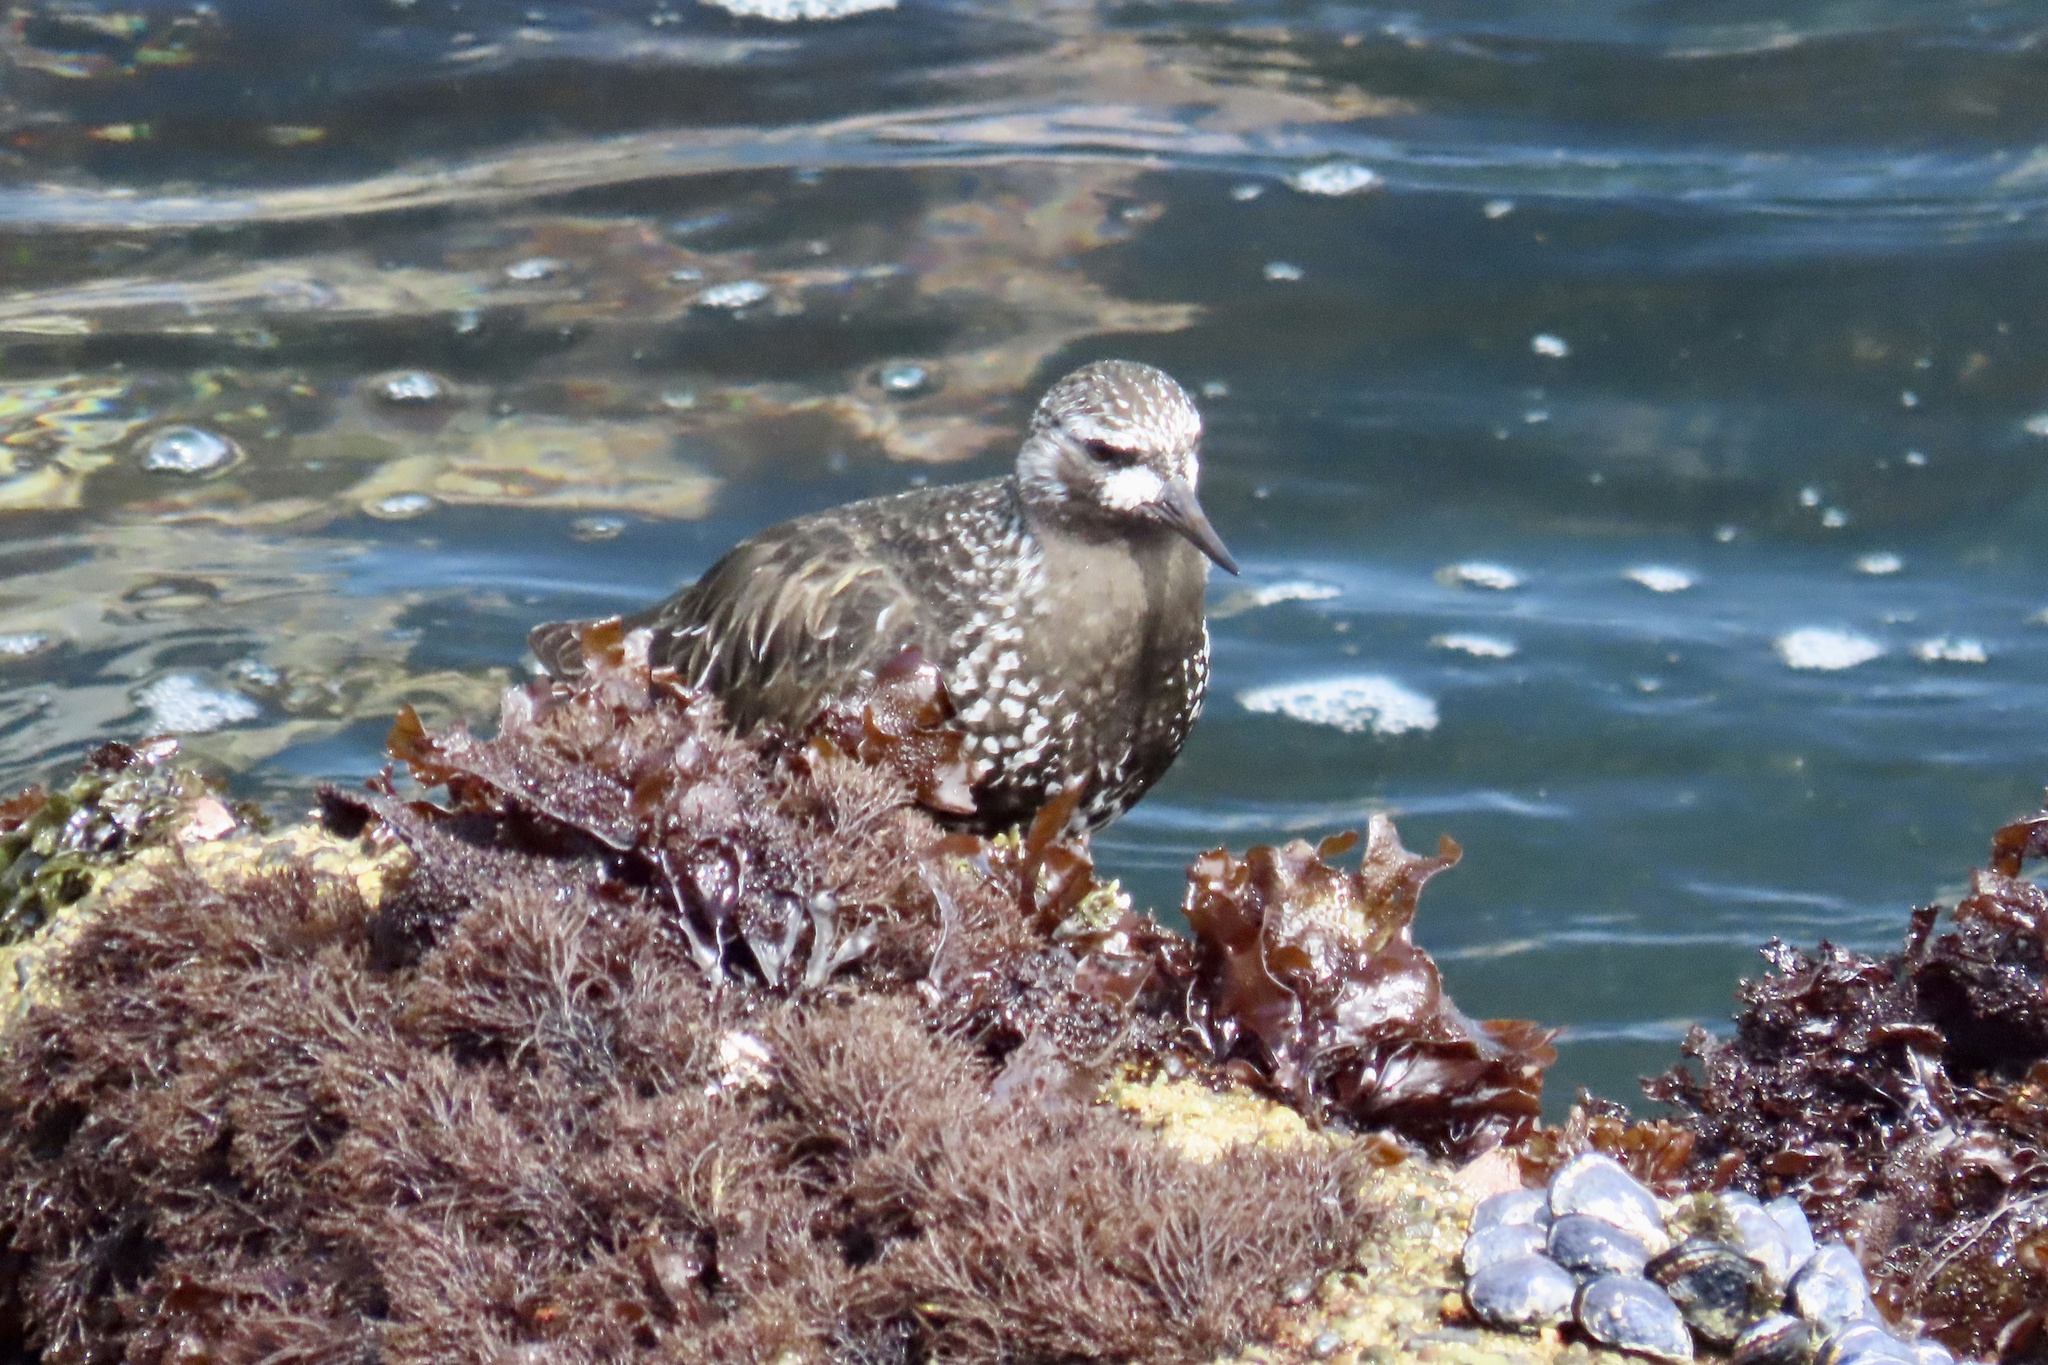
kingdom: Animalia
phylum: Chordata
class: Aves
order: Charadriiformes
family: Scolopacidae
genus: Arenaria
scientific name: Arenaria melanocephala
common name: Black turnstone
